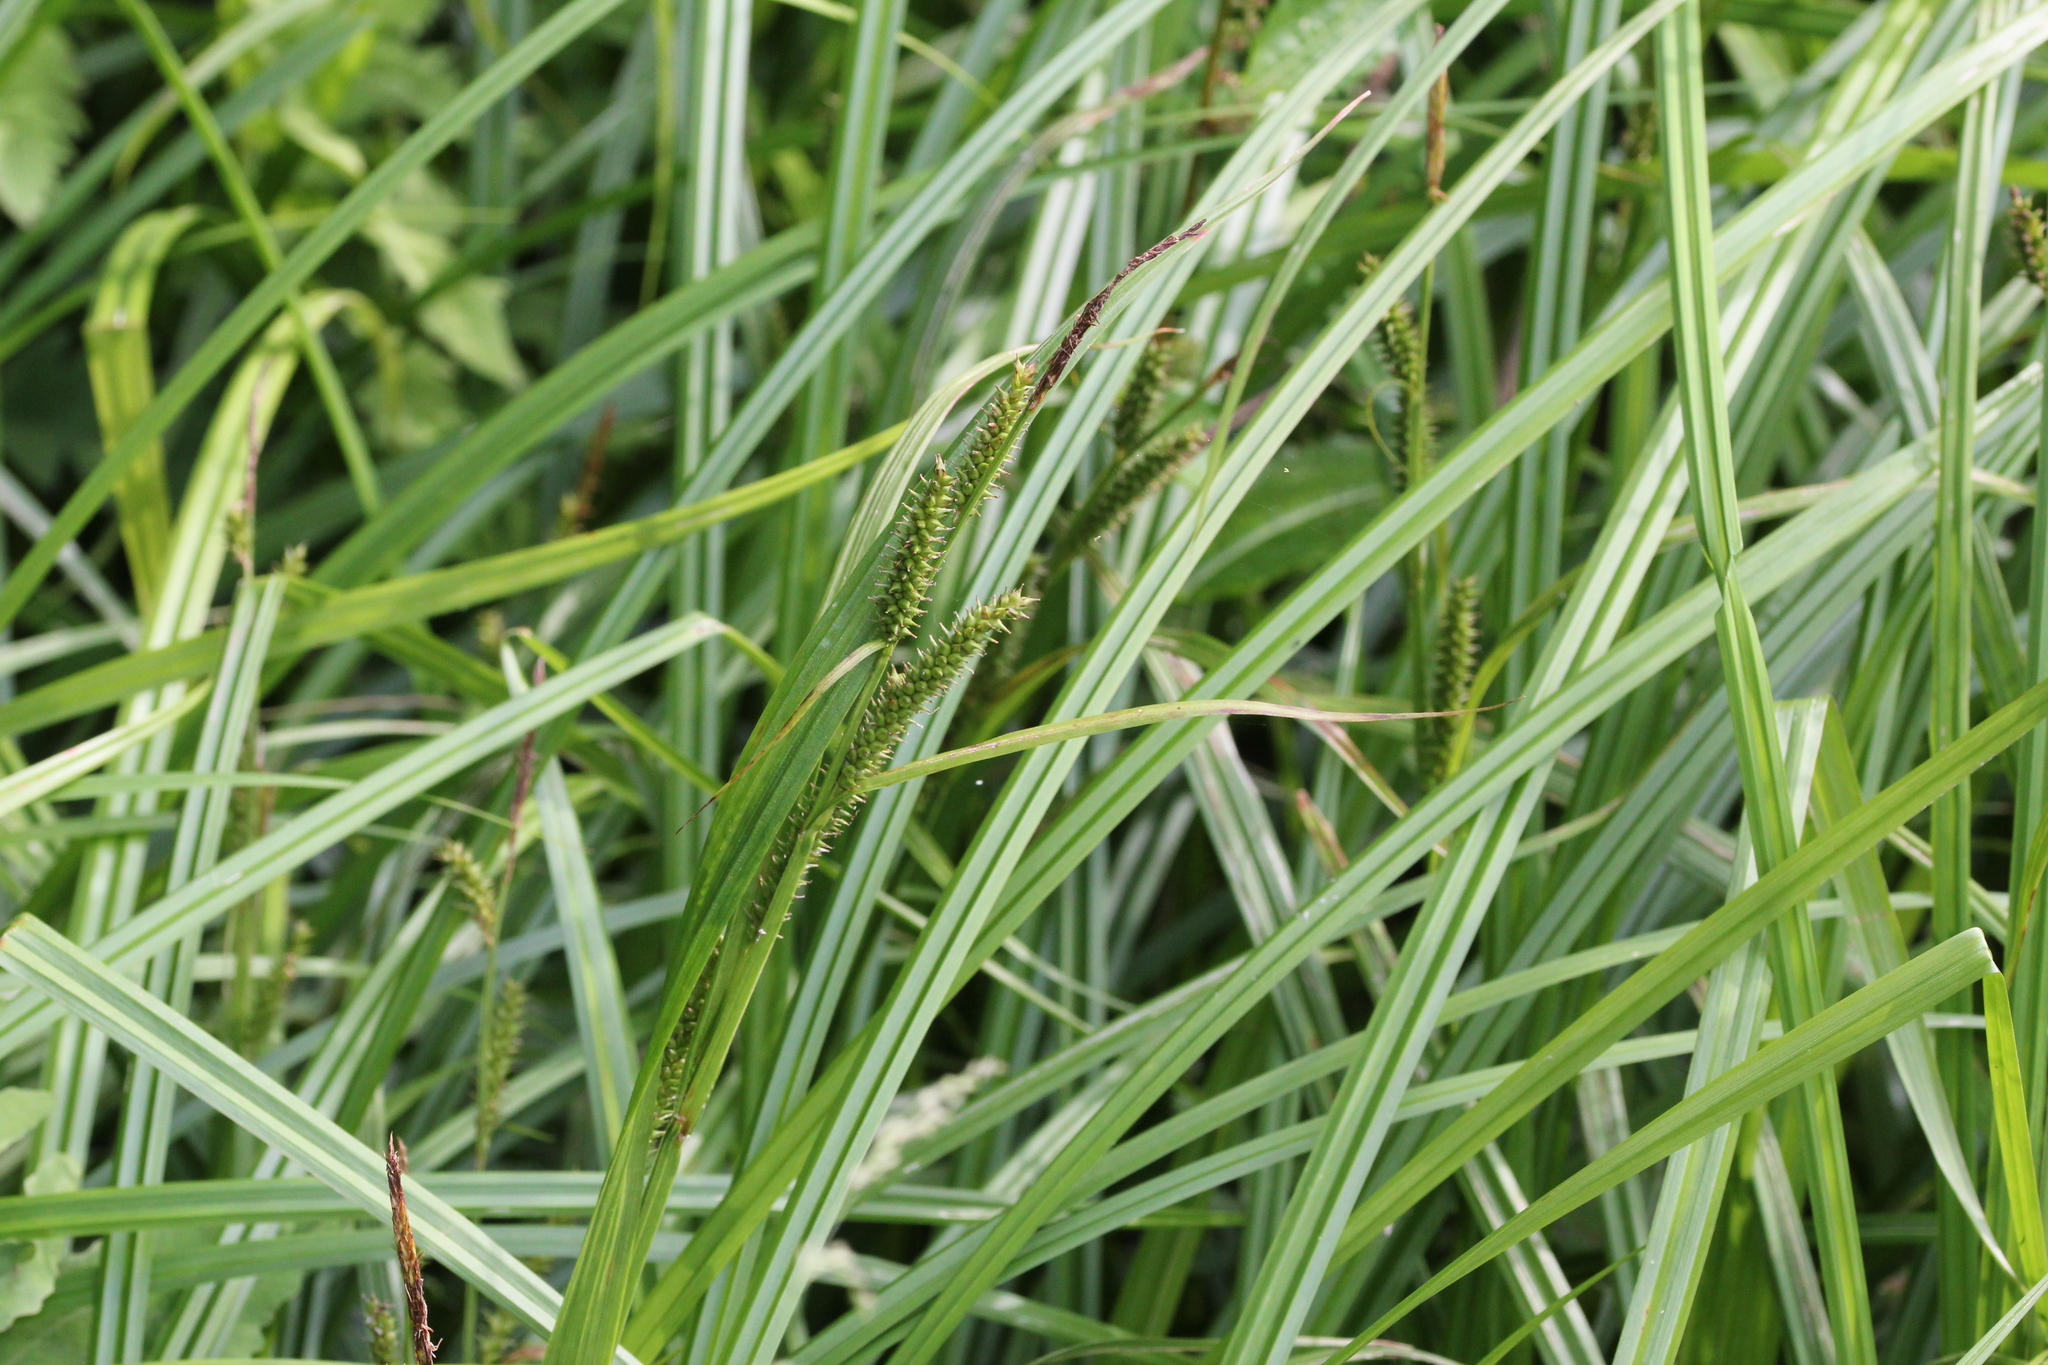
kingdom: Plantae
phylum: Tracheophyta
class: Liliopsida
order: Poales
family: Cyperaceae
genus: Carex
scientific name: Carex scabrata
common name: Eastern rough sedge
